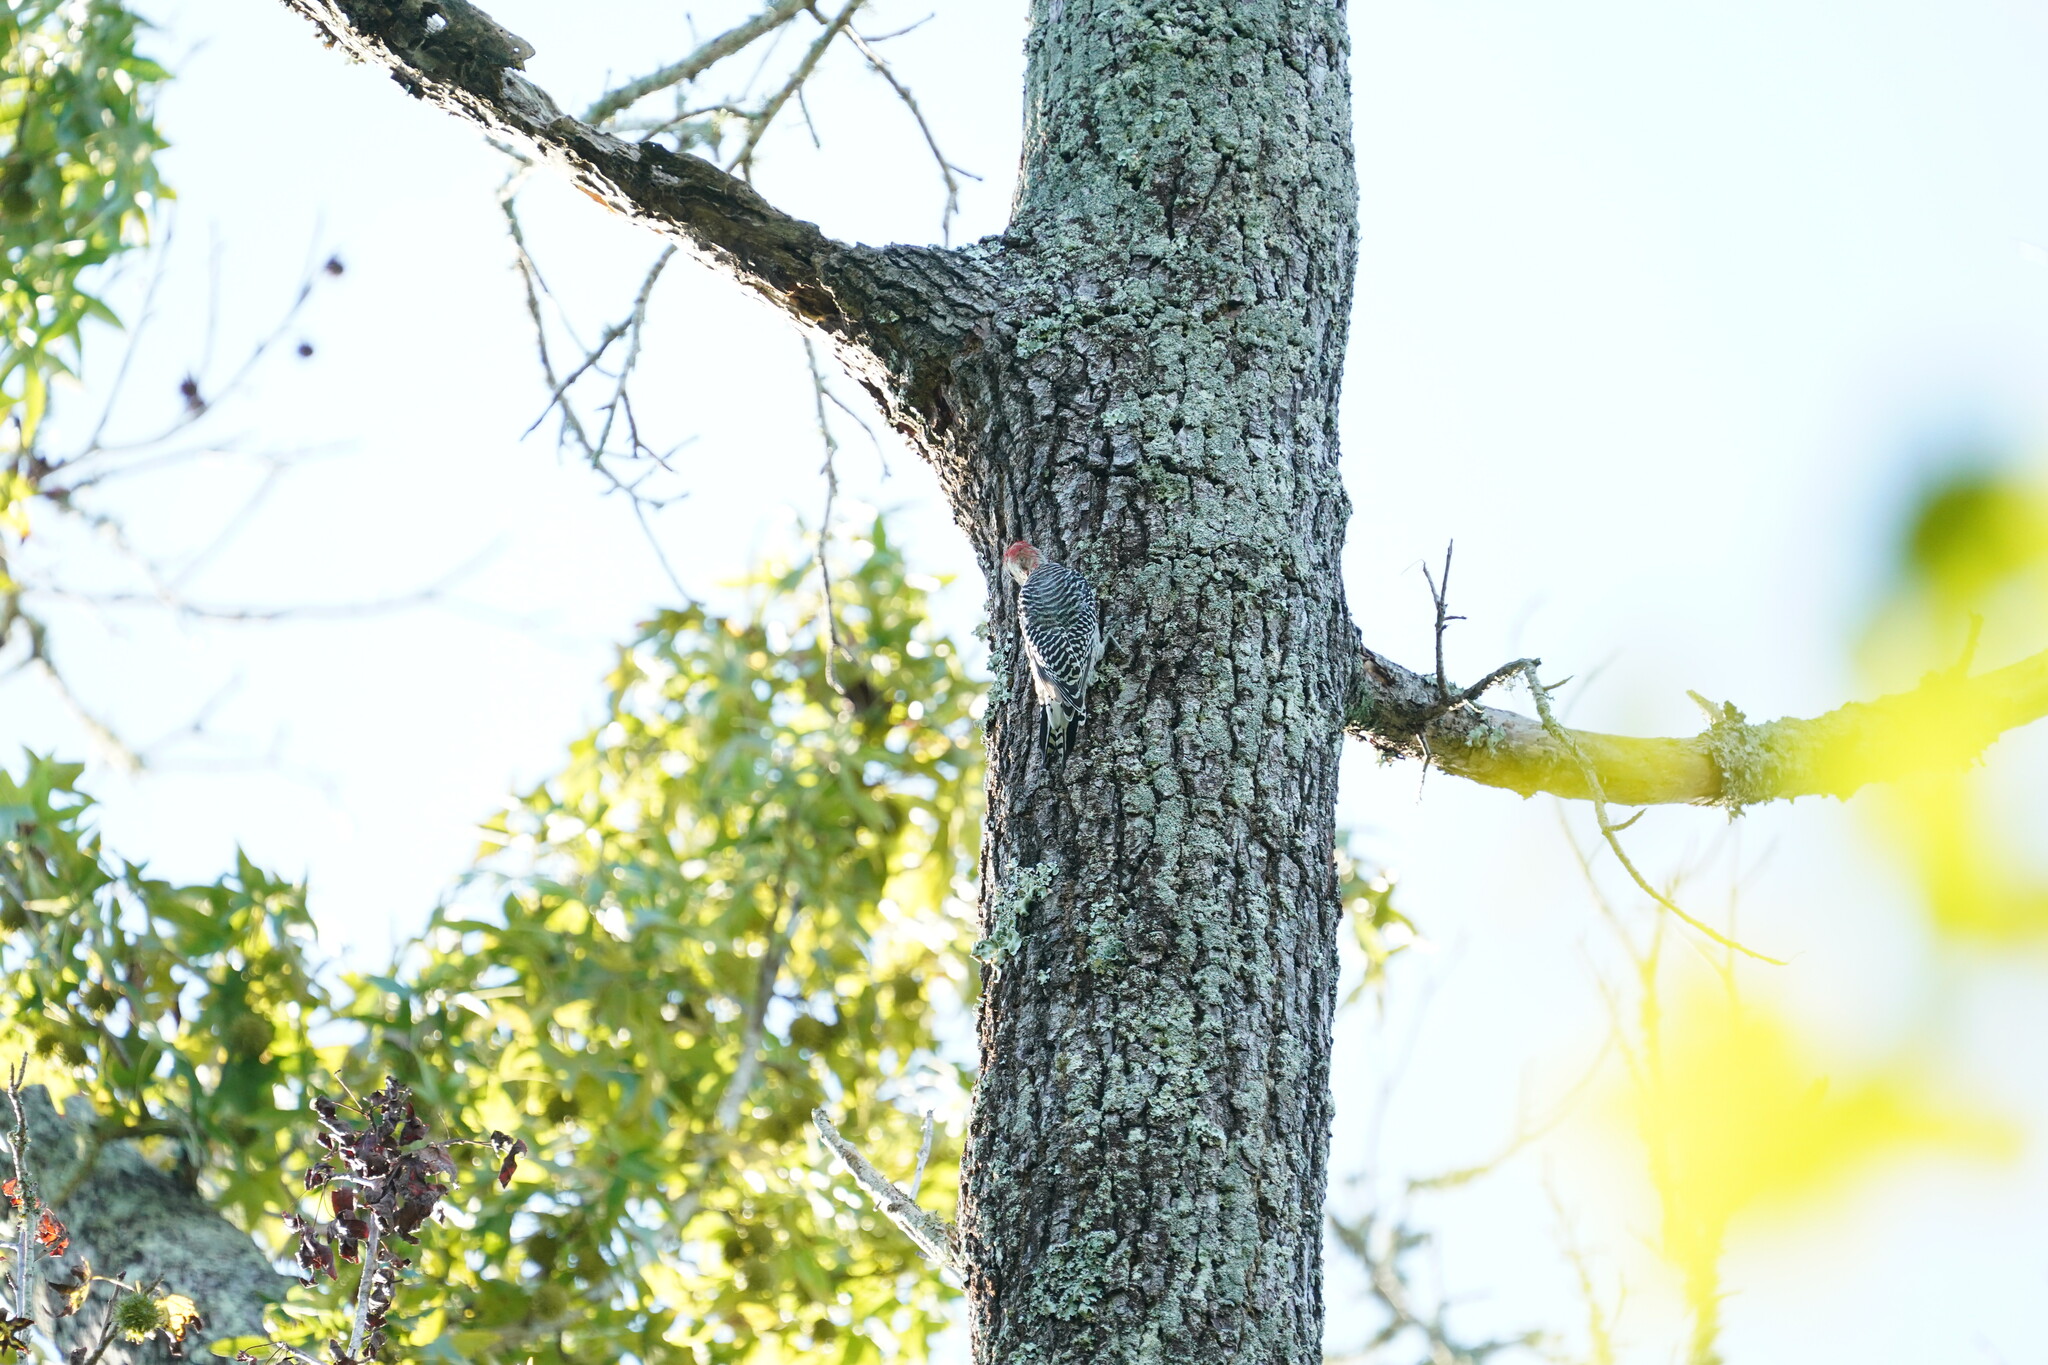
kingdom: Animalia
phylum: Chordata
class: Aves
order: Piciformes
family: Picidae
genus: Melanerpes
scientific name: Melanerpes carolinus
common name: Red-bellied woodpecker
